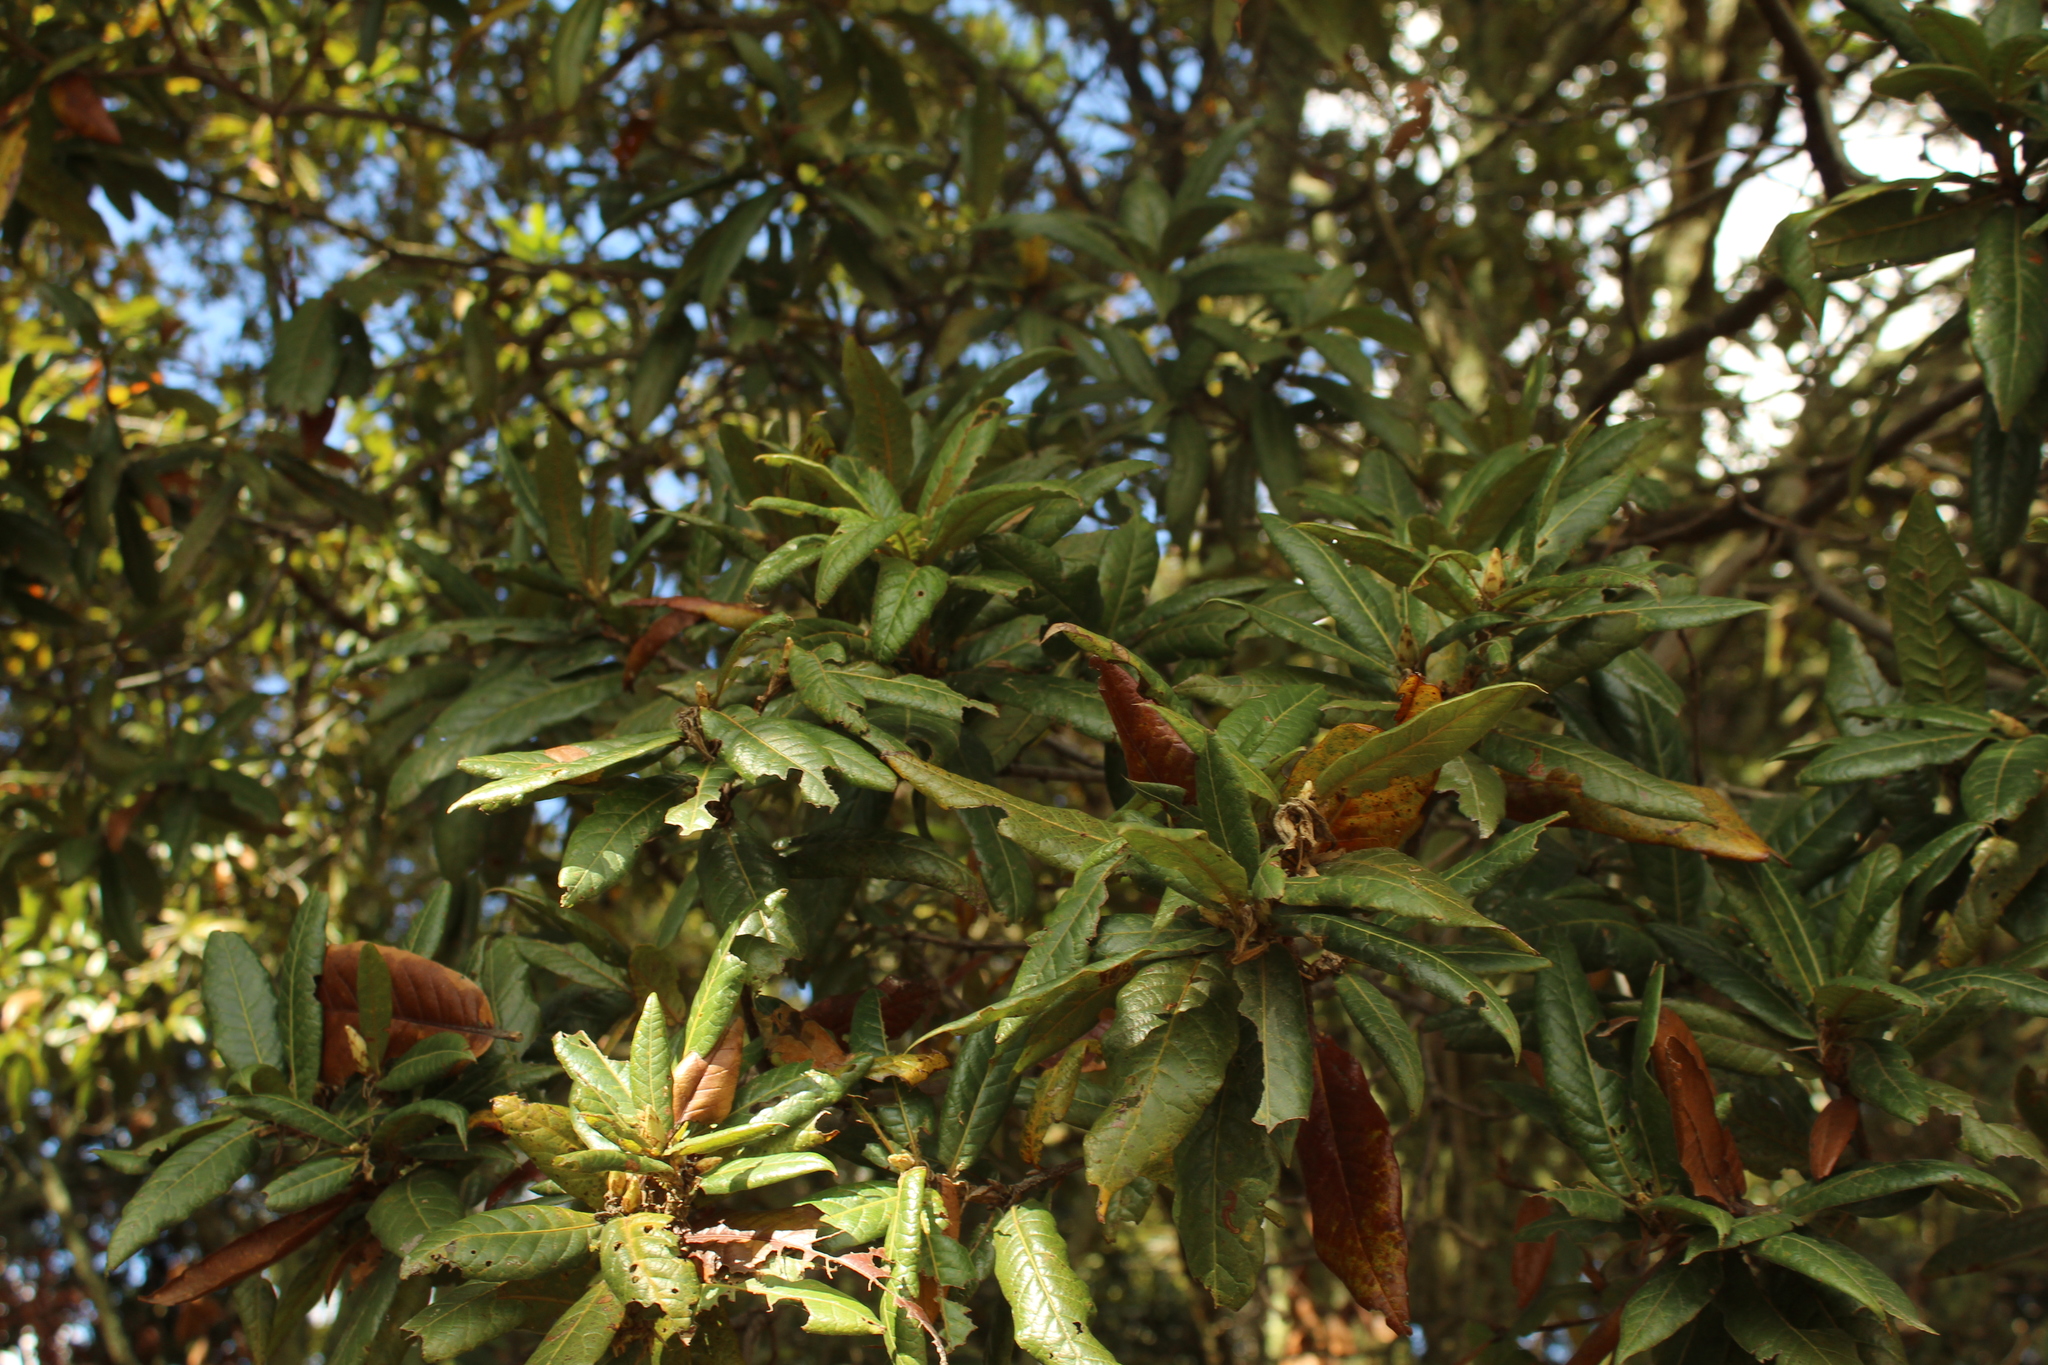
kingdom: Plantae
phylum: Tracheophyta
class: Magnoliopsida
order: Fagales
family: Fagaceae
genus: Quercus
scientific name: Quercus humboldtii
